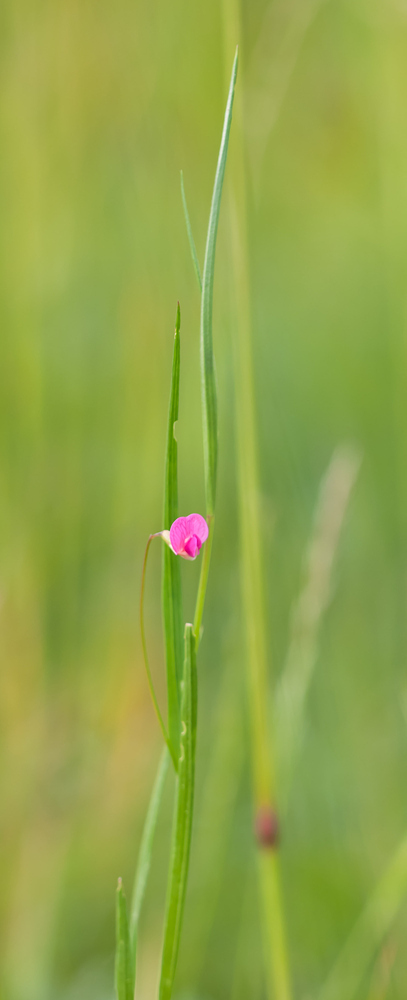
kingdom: Plantae
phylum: Tracheophyta
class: Magnoliopsida
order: Fabales
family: Fabaceae
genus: Lathyrus
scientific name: Lathyrus nissolia
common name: Grass vetchling
